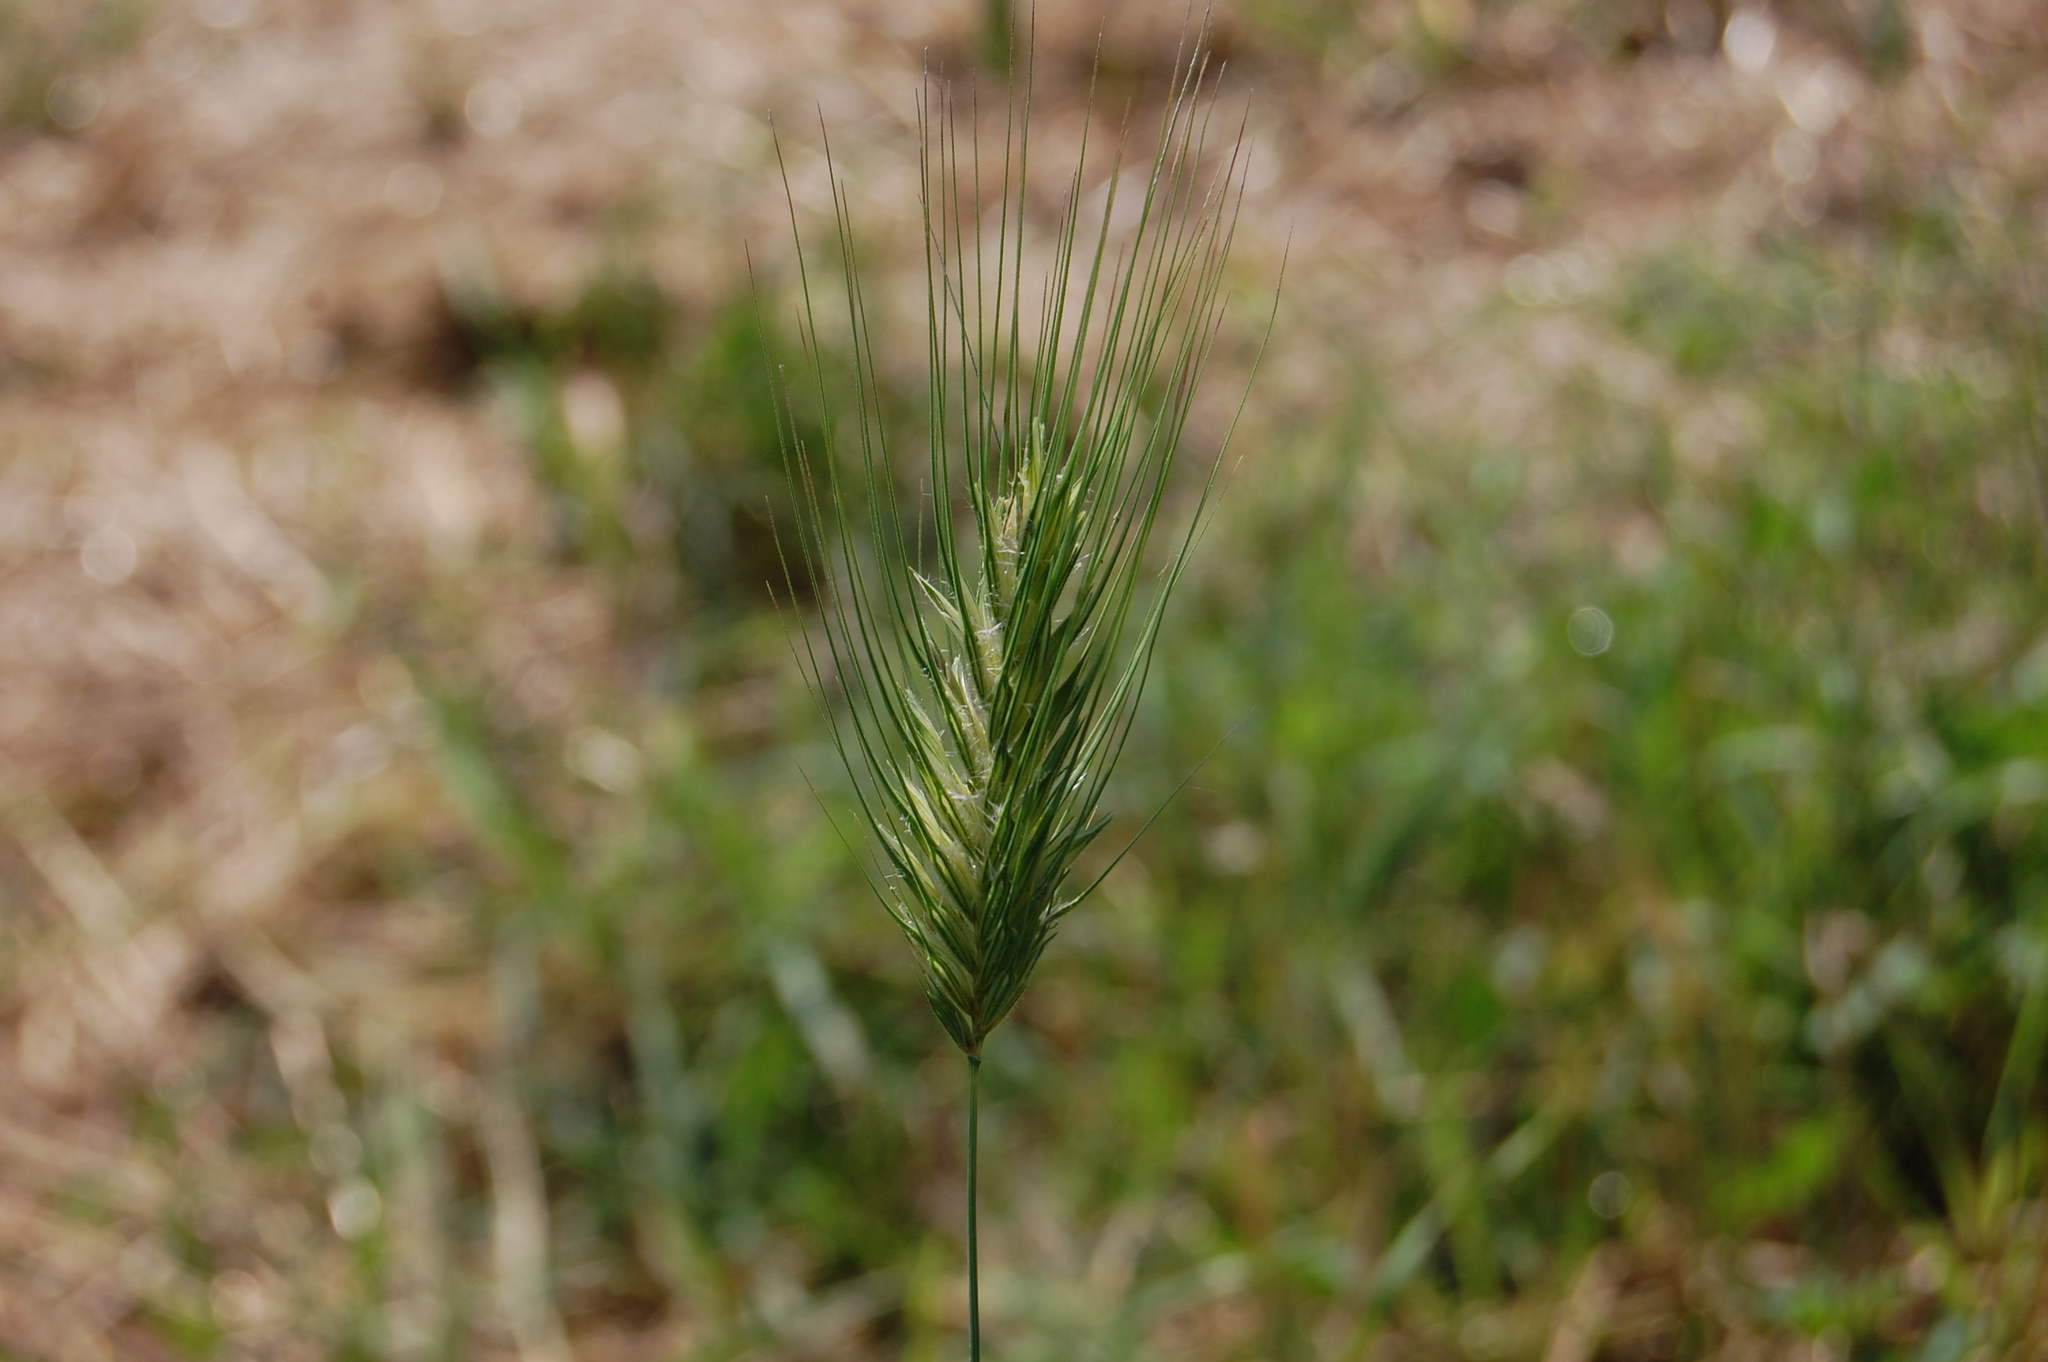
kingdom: Plantae
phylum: Tracheophyta
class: Liliopsida
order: Poales
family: Poaceae
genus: Dasypyrum
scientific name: Dasypyrum villosum
